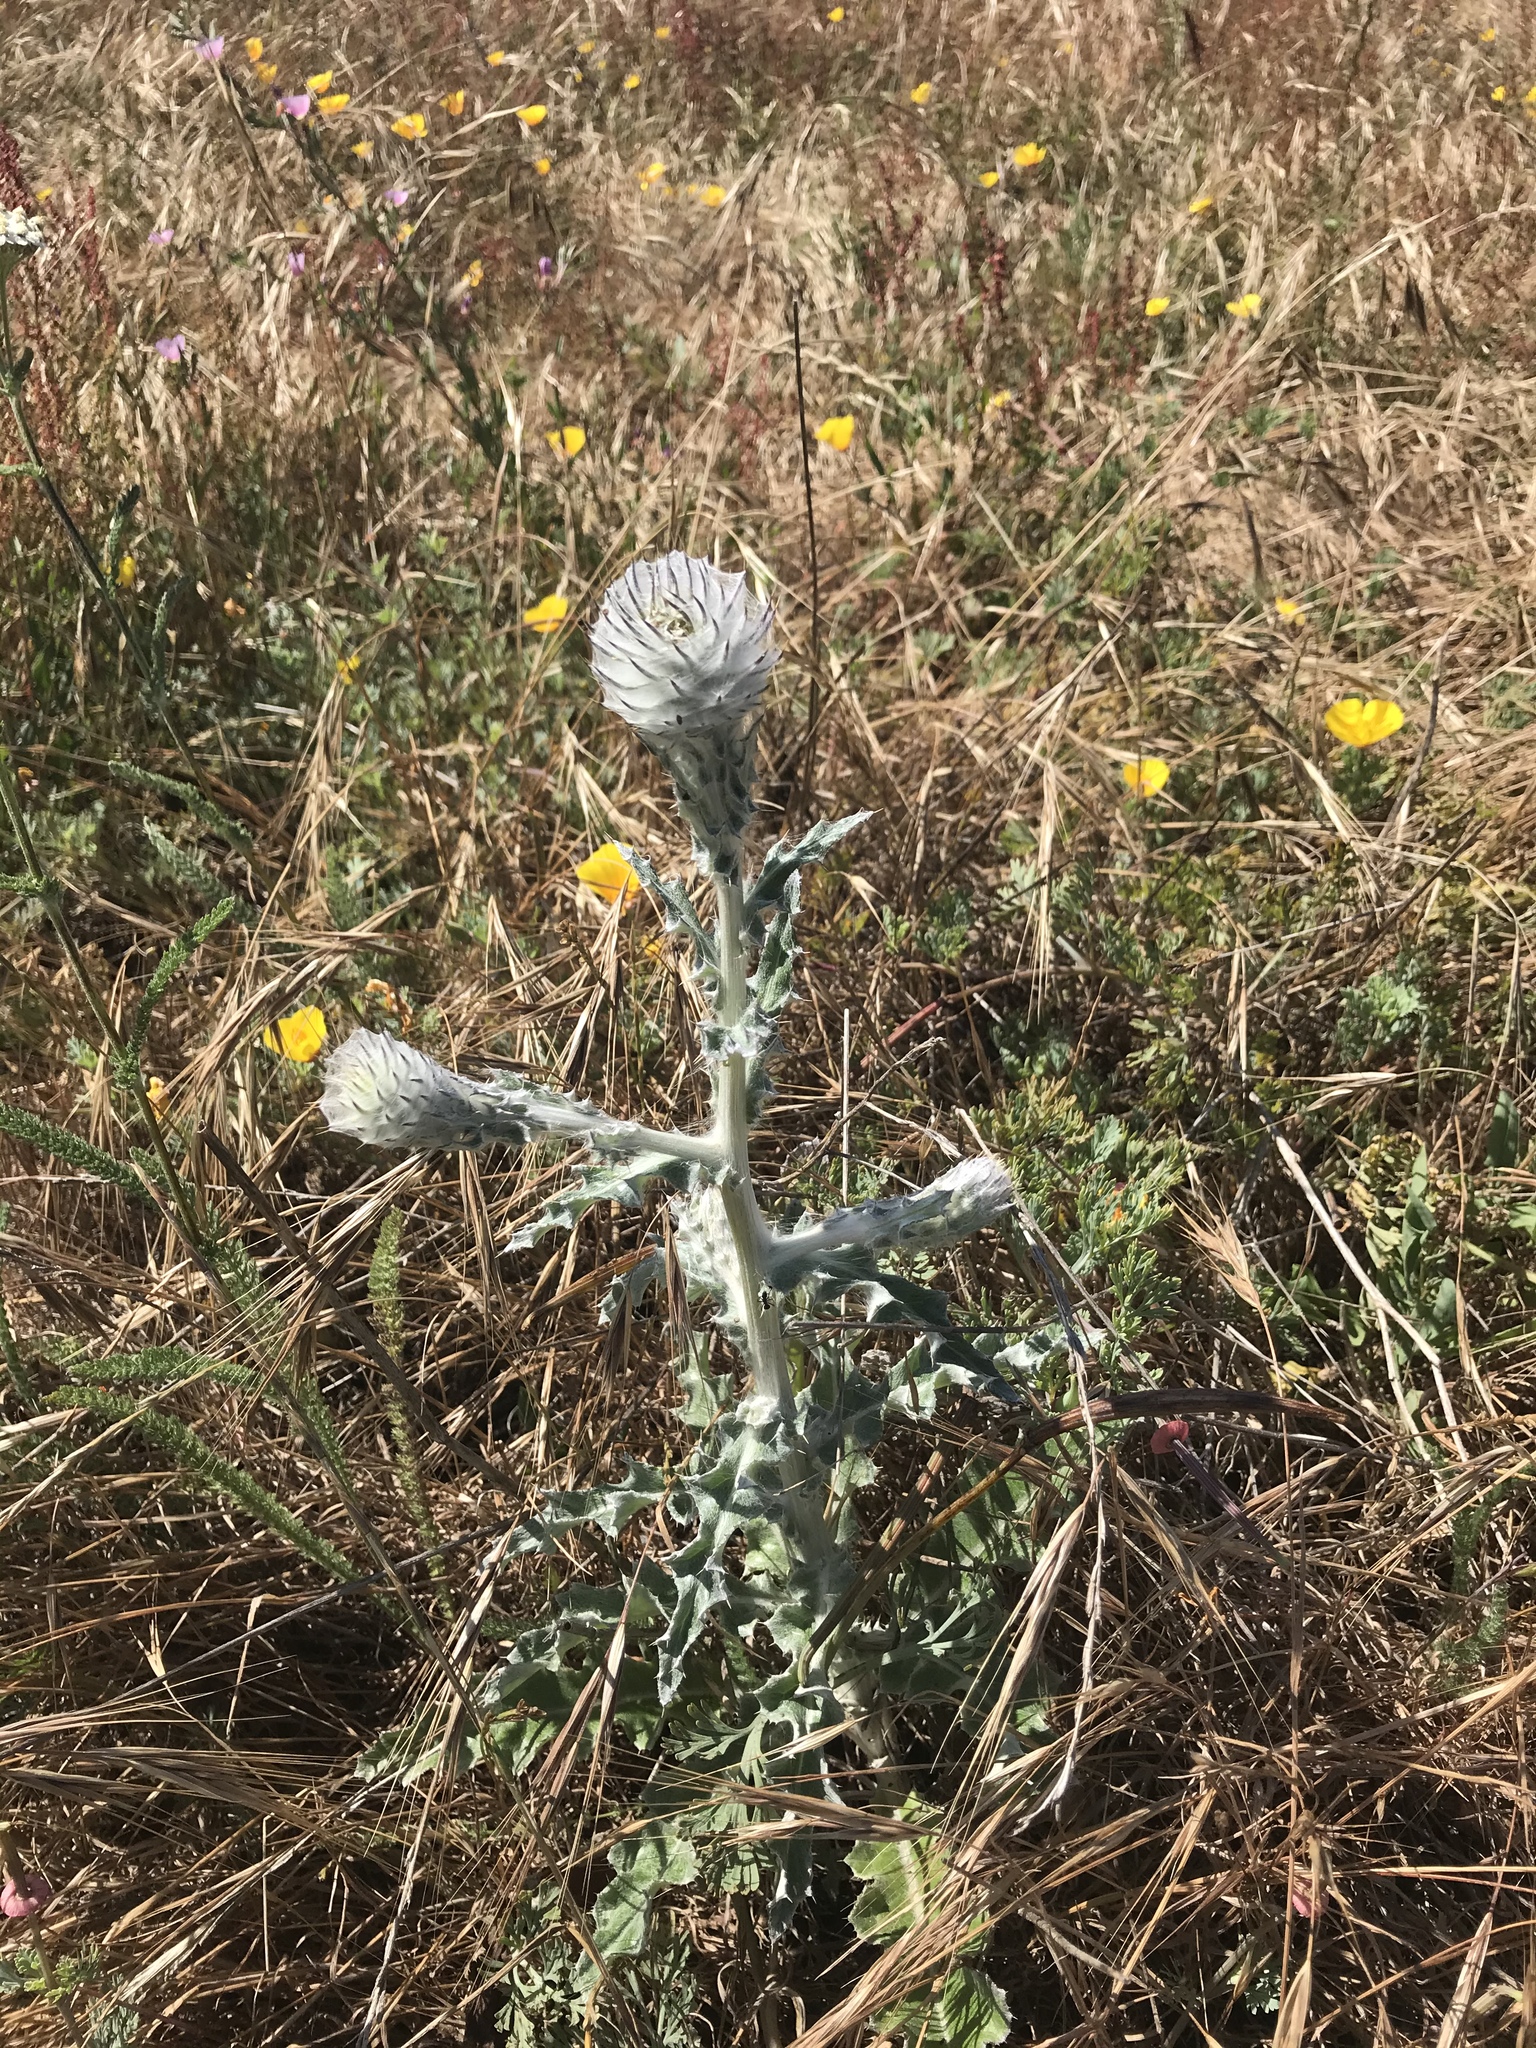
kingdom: Plantae
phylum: Tracheophyta
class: Magnoliopsida
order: Asterales
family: Asteraceae
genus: Cirsium
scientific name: Cirsium occidentale
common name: Western thistle
